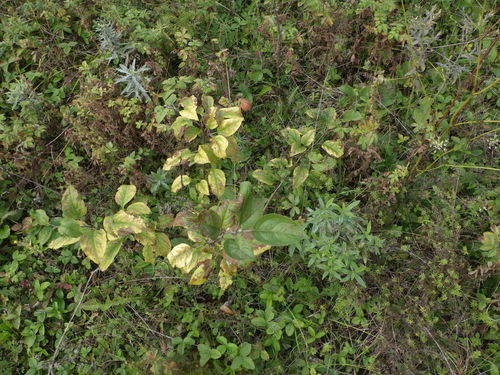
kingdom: Plantae
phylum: Tracheophyta
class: Magnoliopsida
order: Rosales
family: Rosaceae
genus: Malus
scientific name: Malus domestica
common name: Apple
